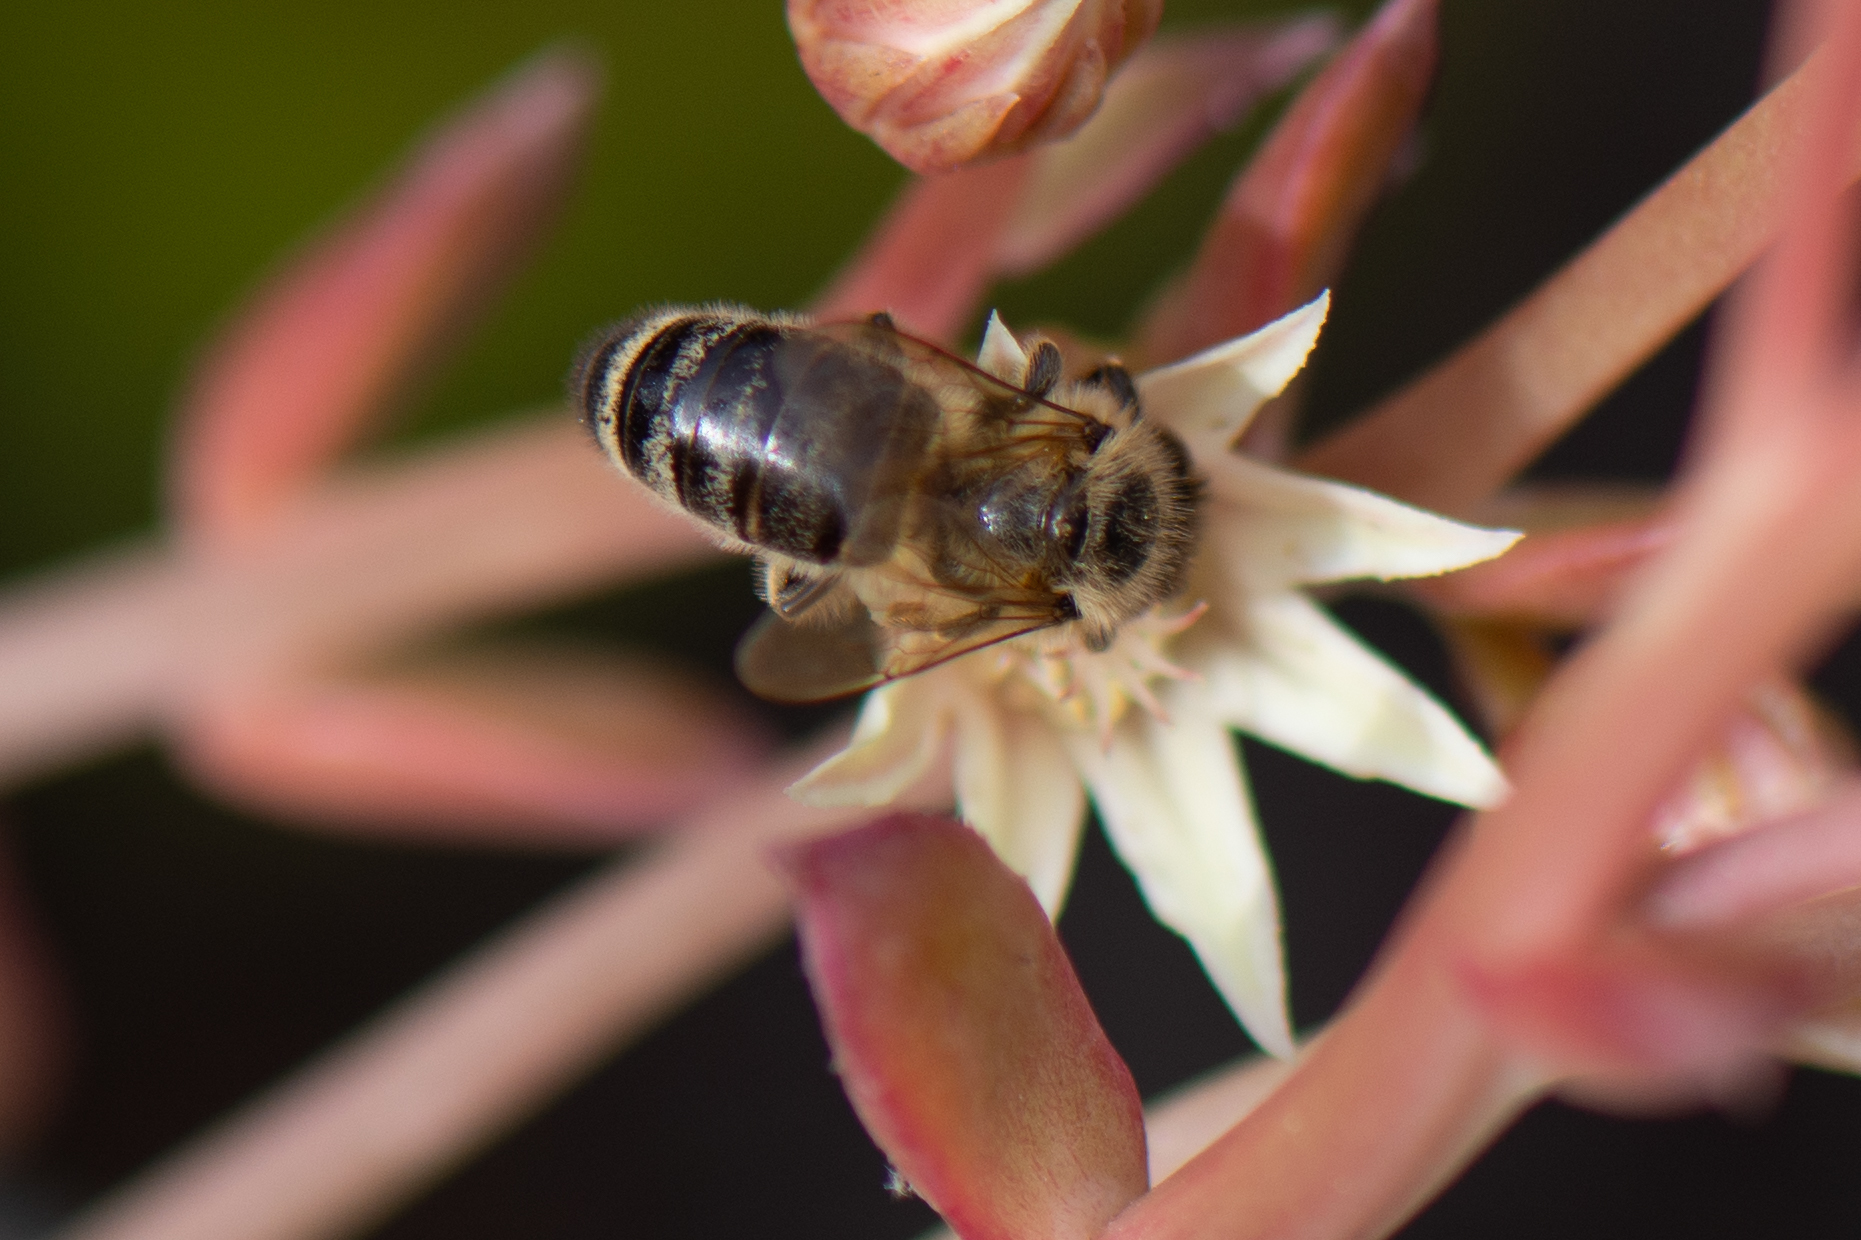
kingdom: Animalia
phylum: Arthropoda
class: Insecta
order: Hymenoptera
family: Apidae
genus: Apis
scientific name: Apis mellifera
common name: Honey bee
